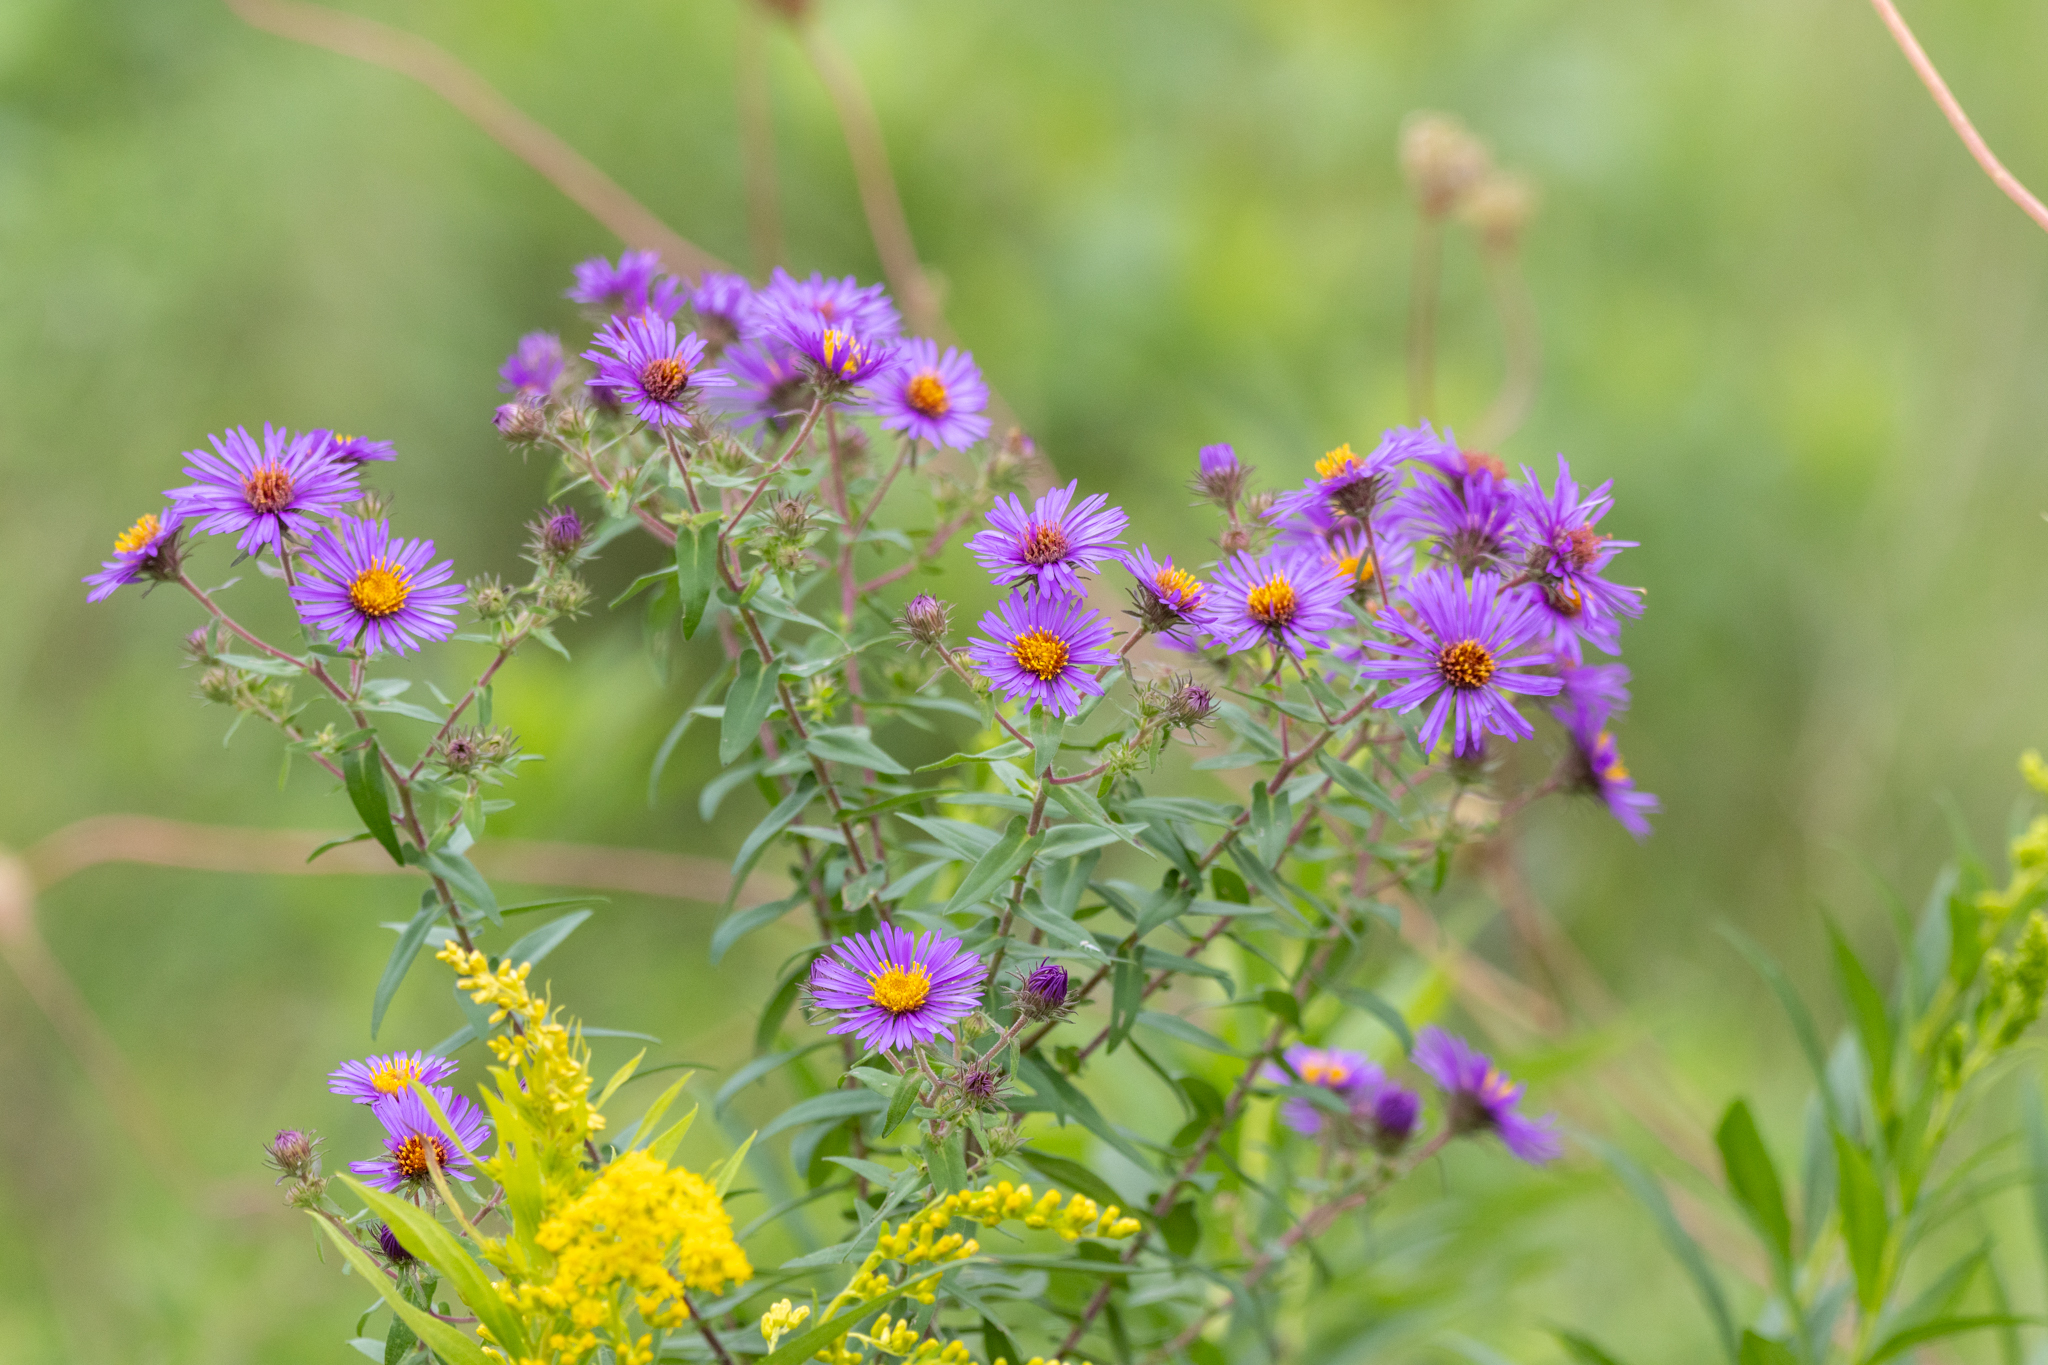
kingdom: Plantae
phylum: Tracheophyta
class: Magnoliopsida
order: Asterales
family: Asteraceae
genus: Symphyotrichum
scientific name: Symphyotrichum novae-angliae
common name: Michaelmas daisy
